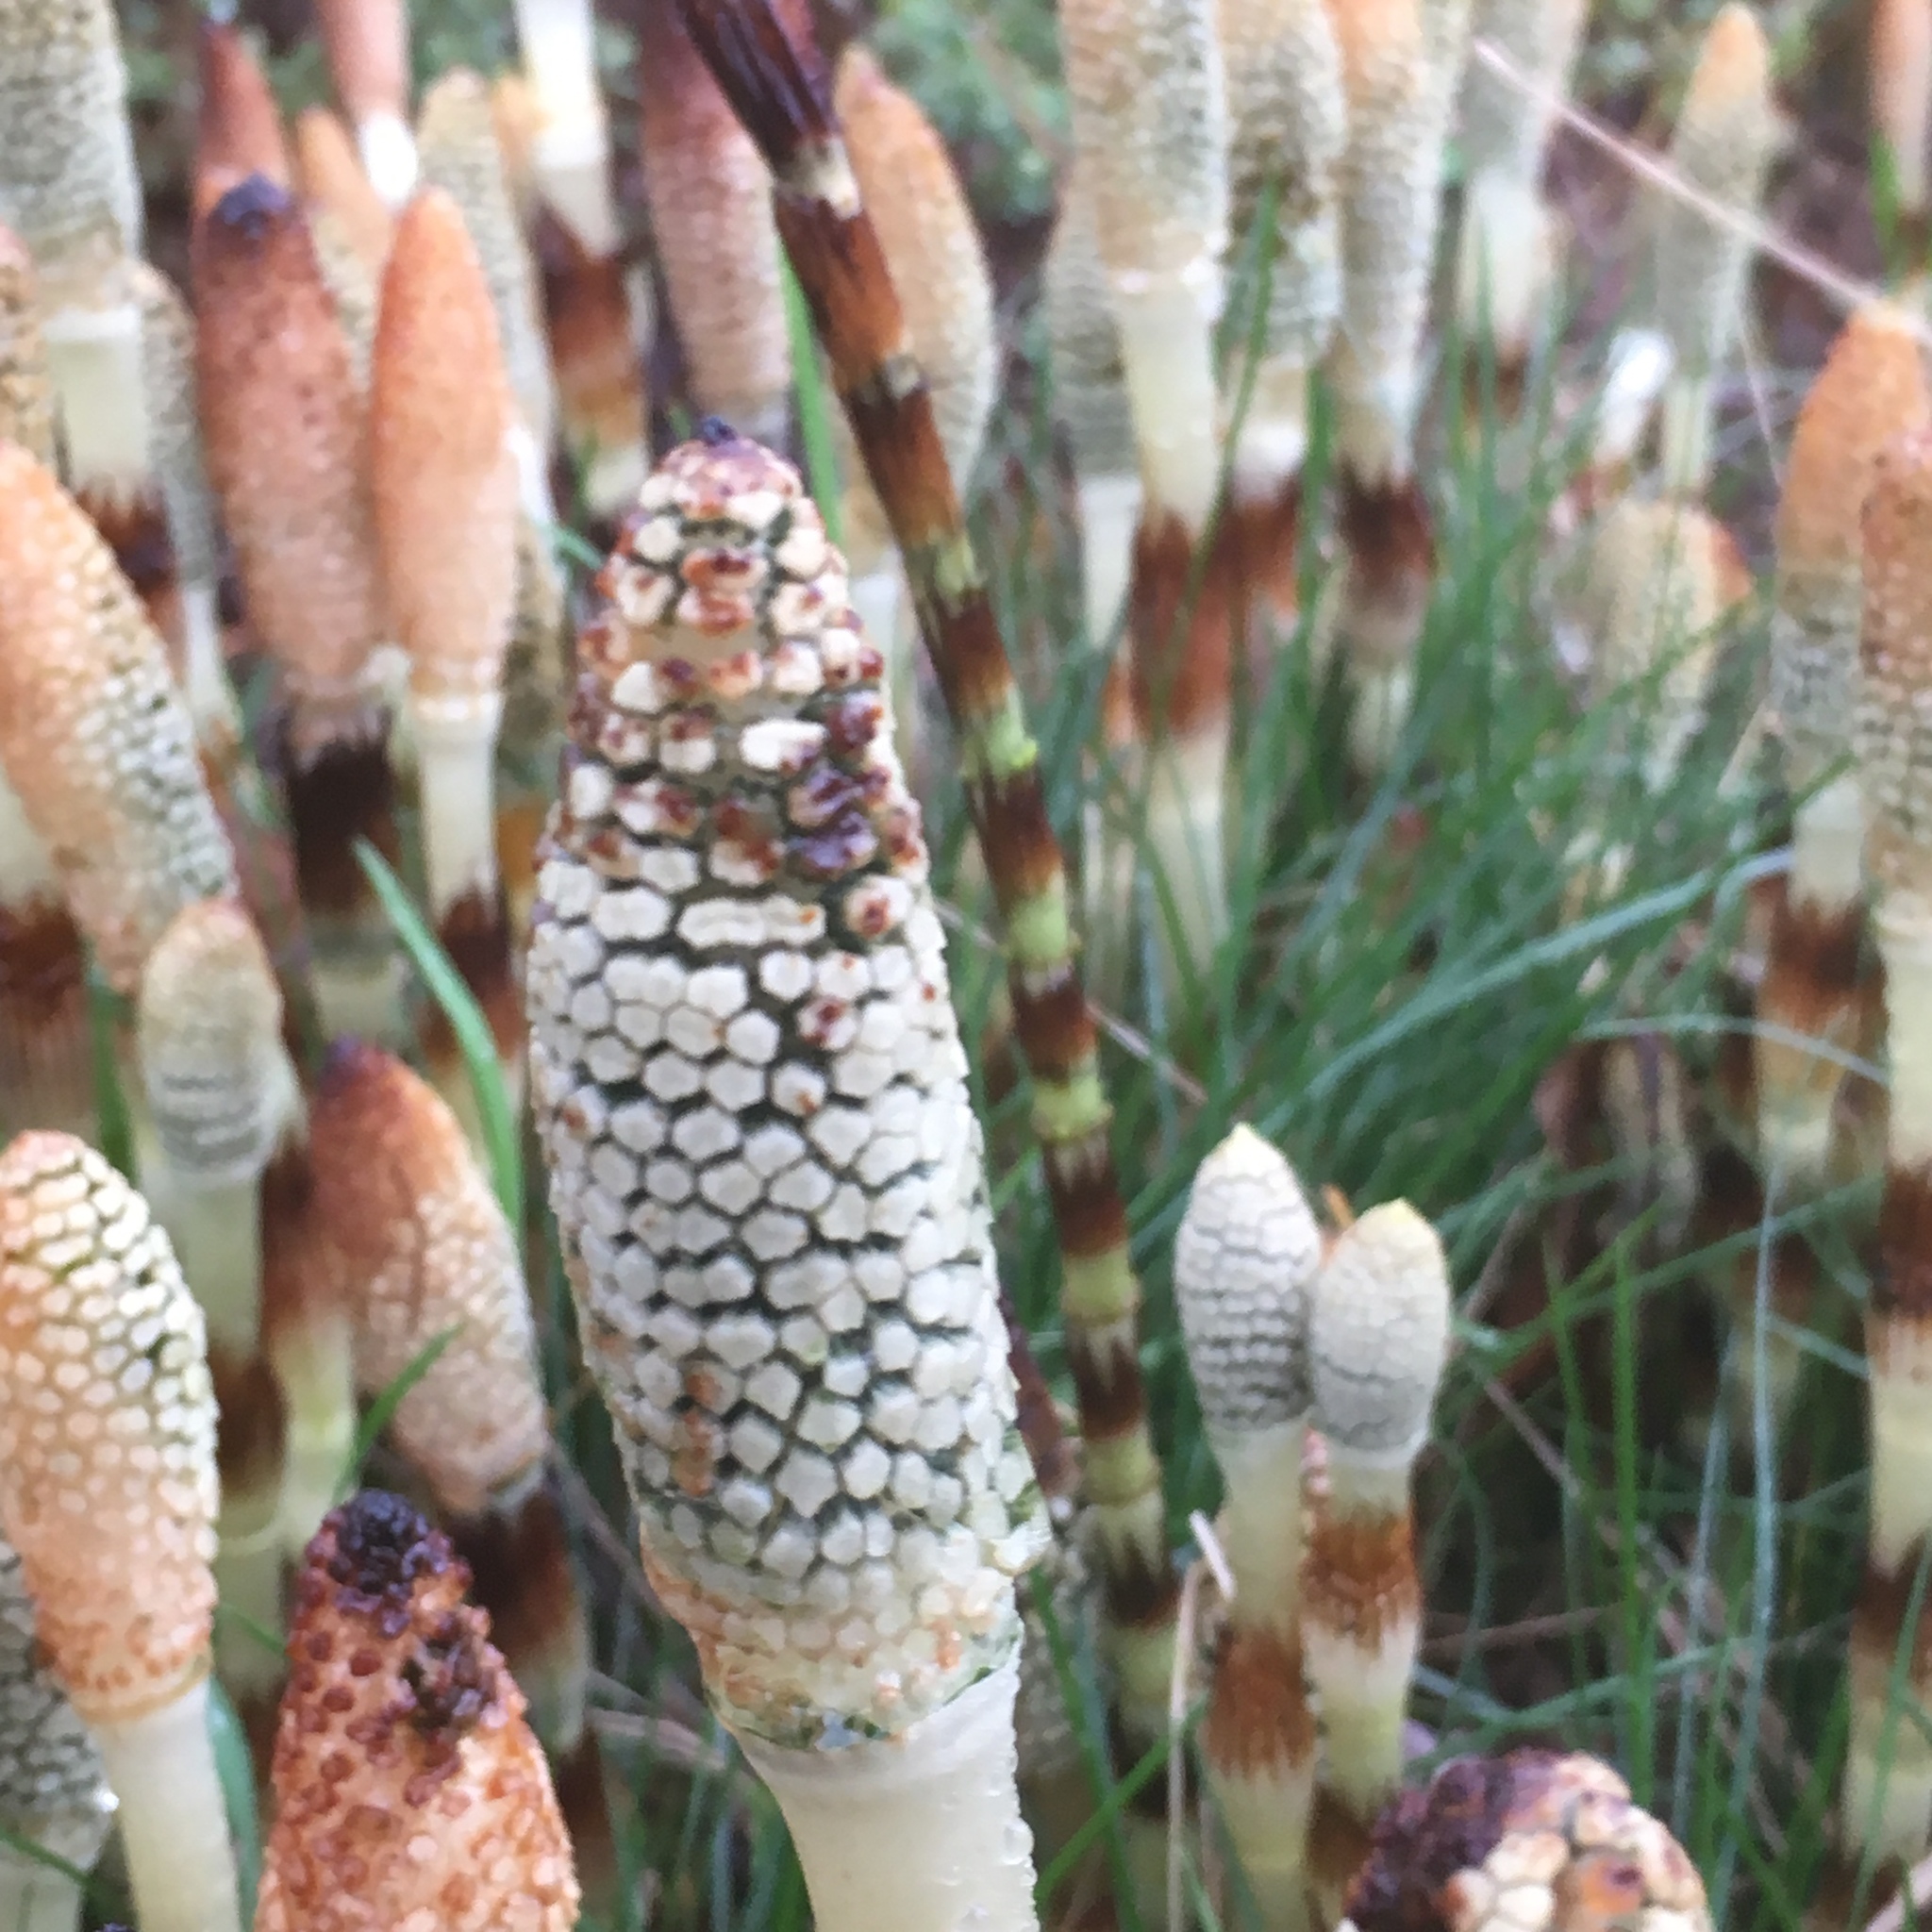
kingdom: Plantae
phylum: Tracheophyta
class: Polypodiopsida
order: Equisetales
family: Equisetaceae
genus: Equisetum
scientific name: Equisetum braunii
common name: Braun's horsetail
